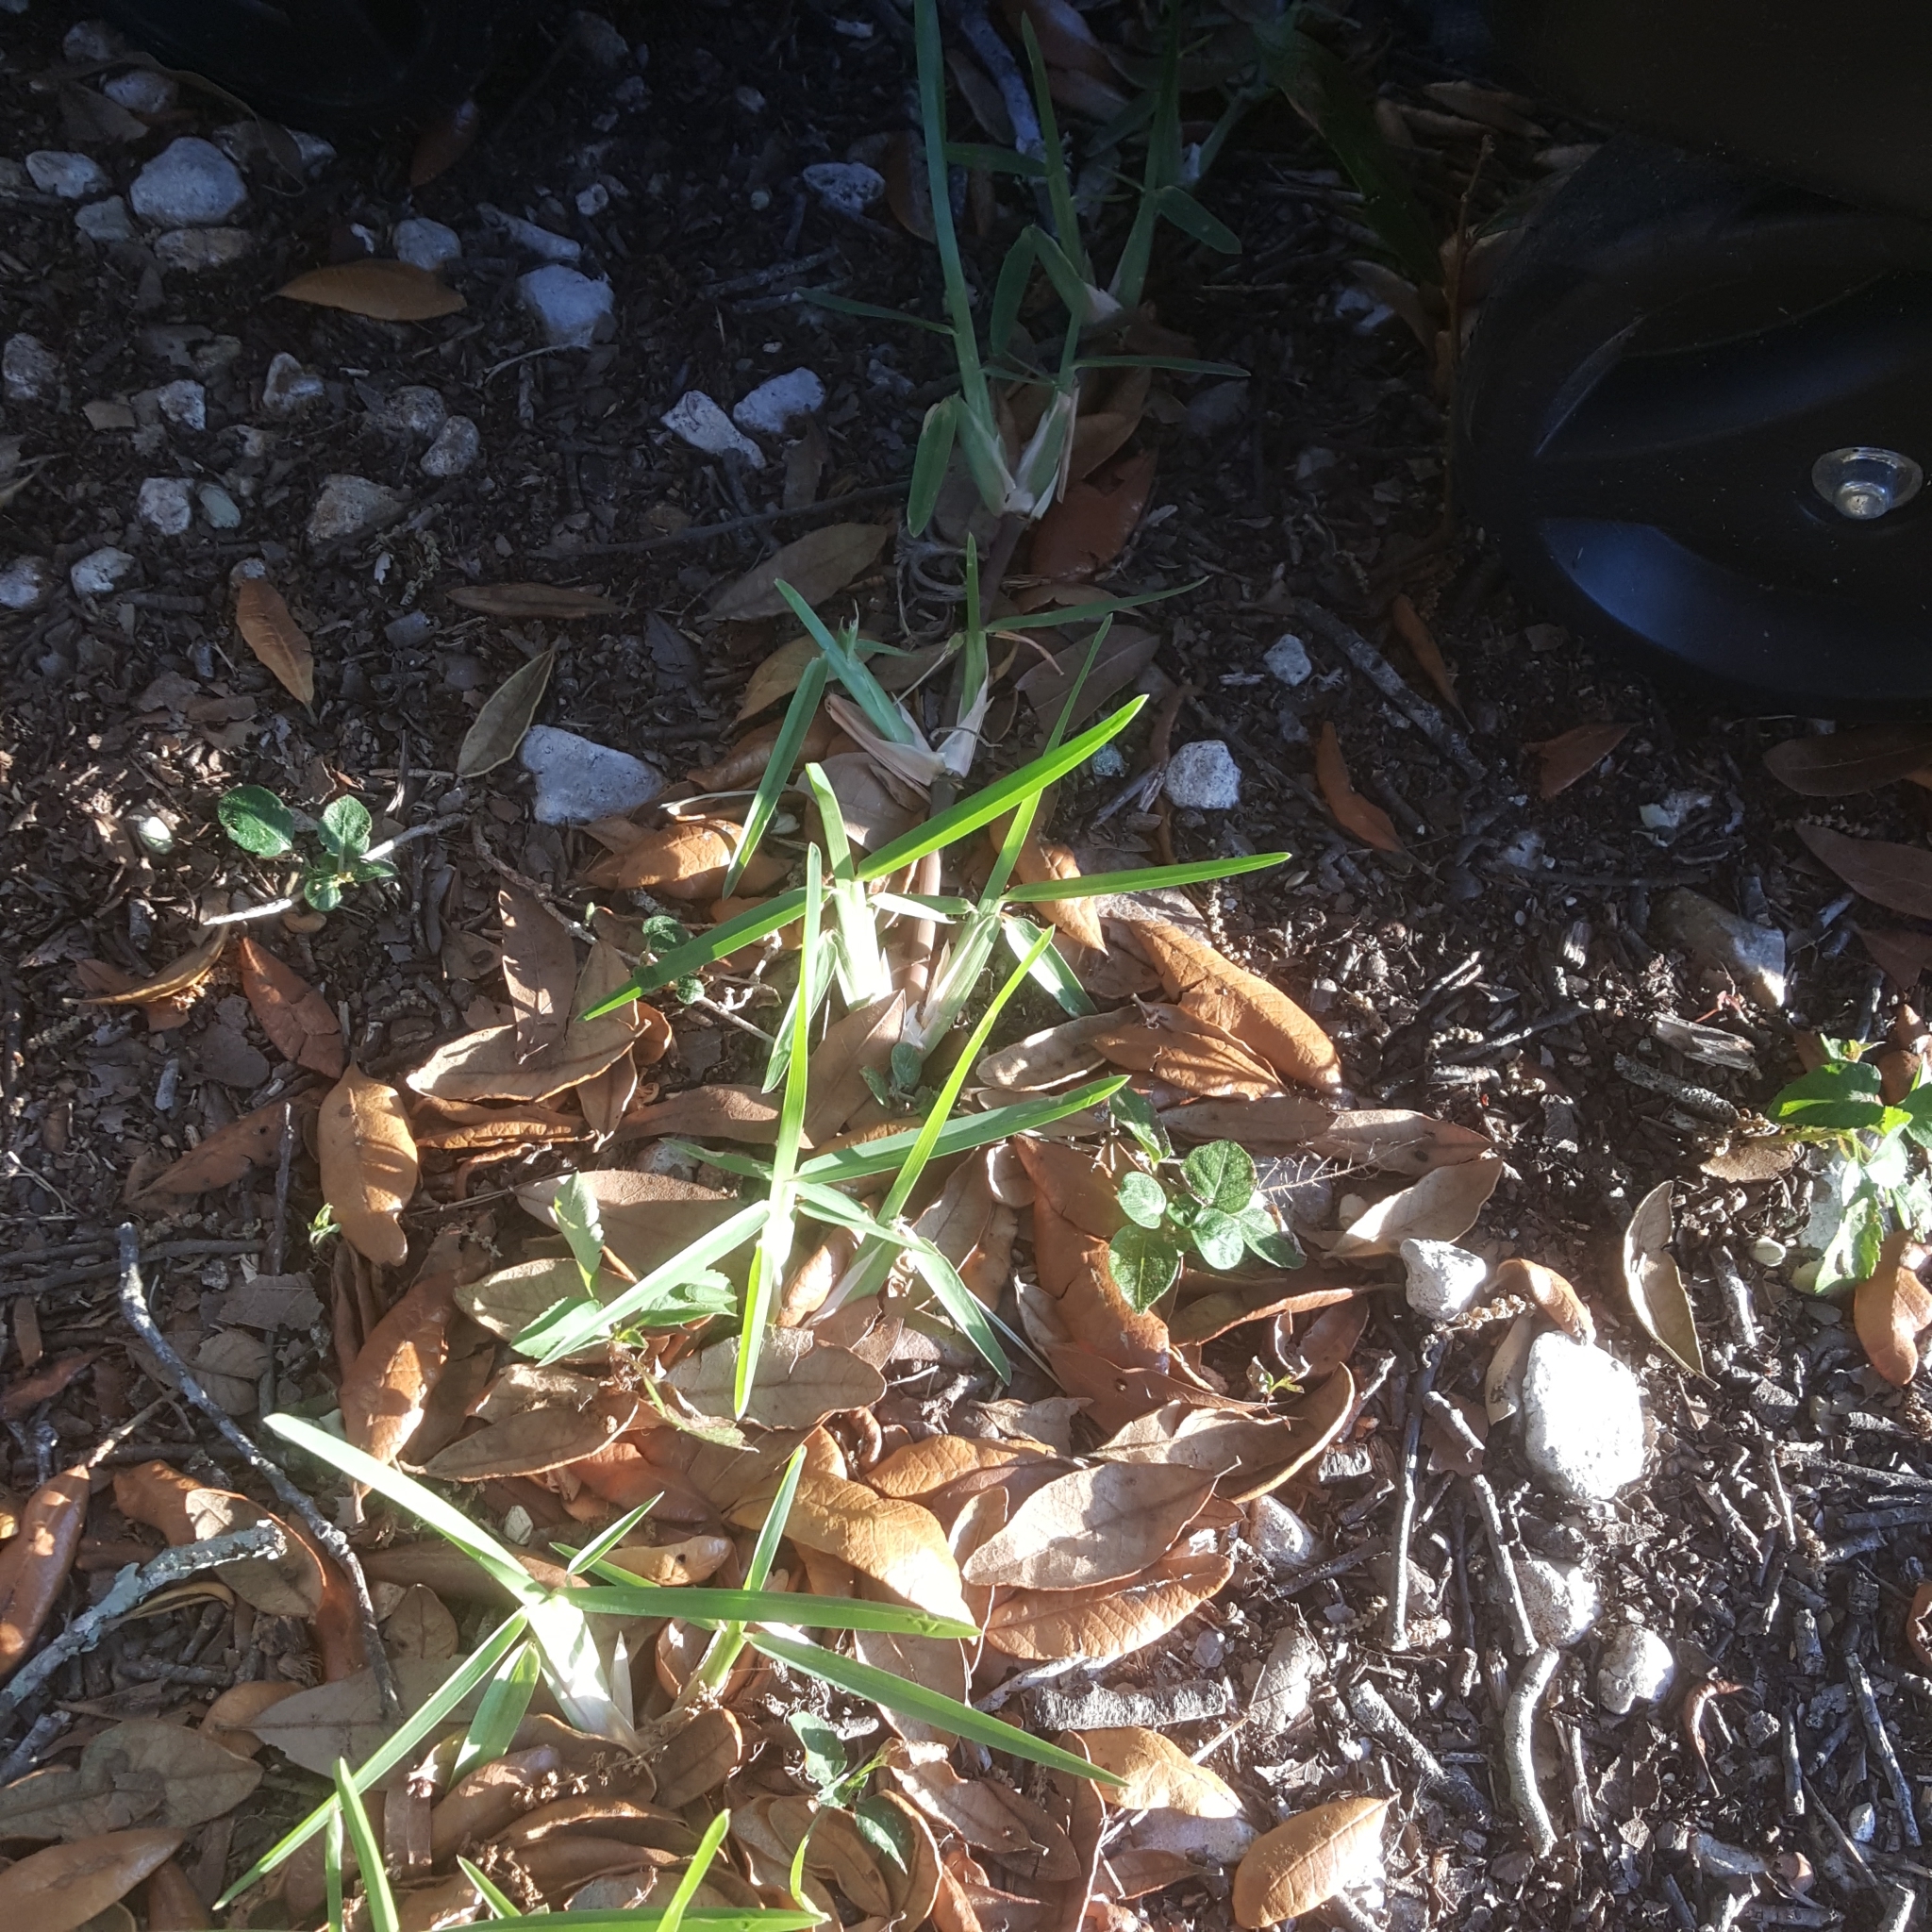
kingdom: Plantae
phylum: Tracheophyta
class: Liliopsida
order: Poales
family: Poaceae
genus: Cynodon
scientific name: Cynodon dactylon
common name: Bermuda grass
